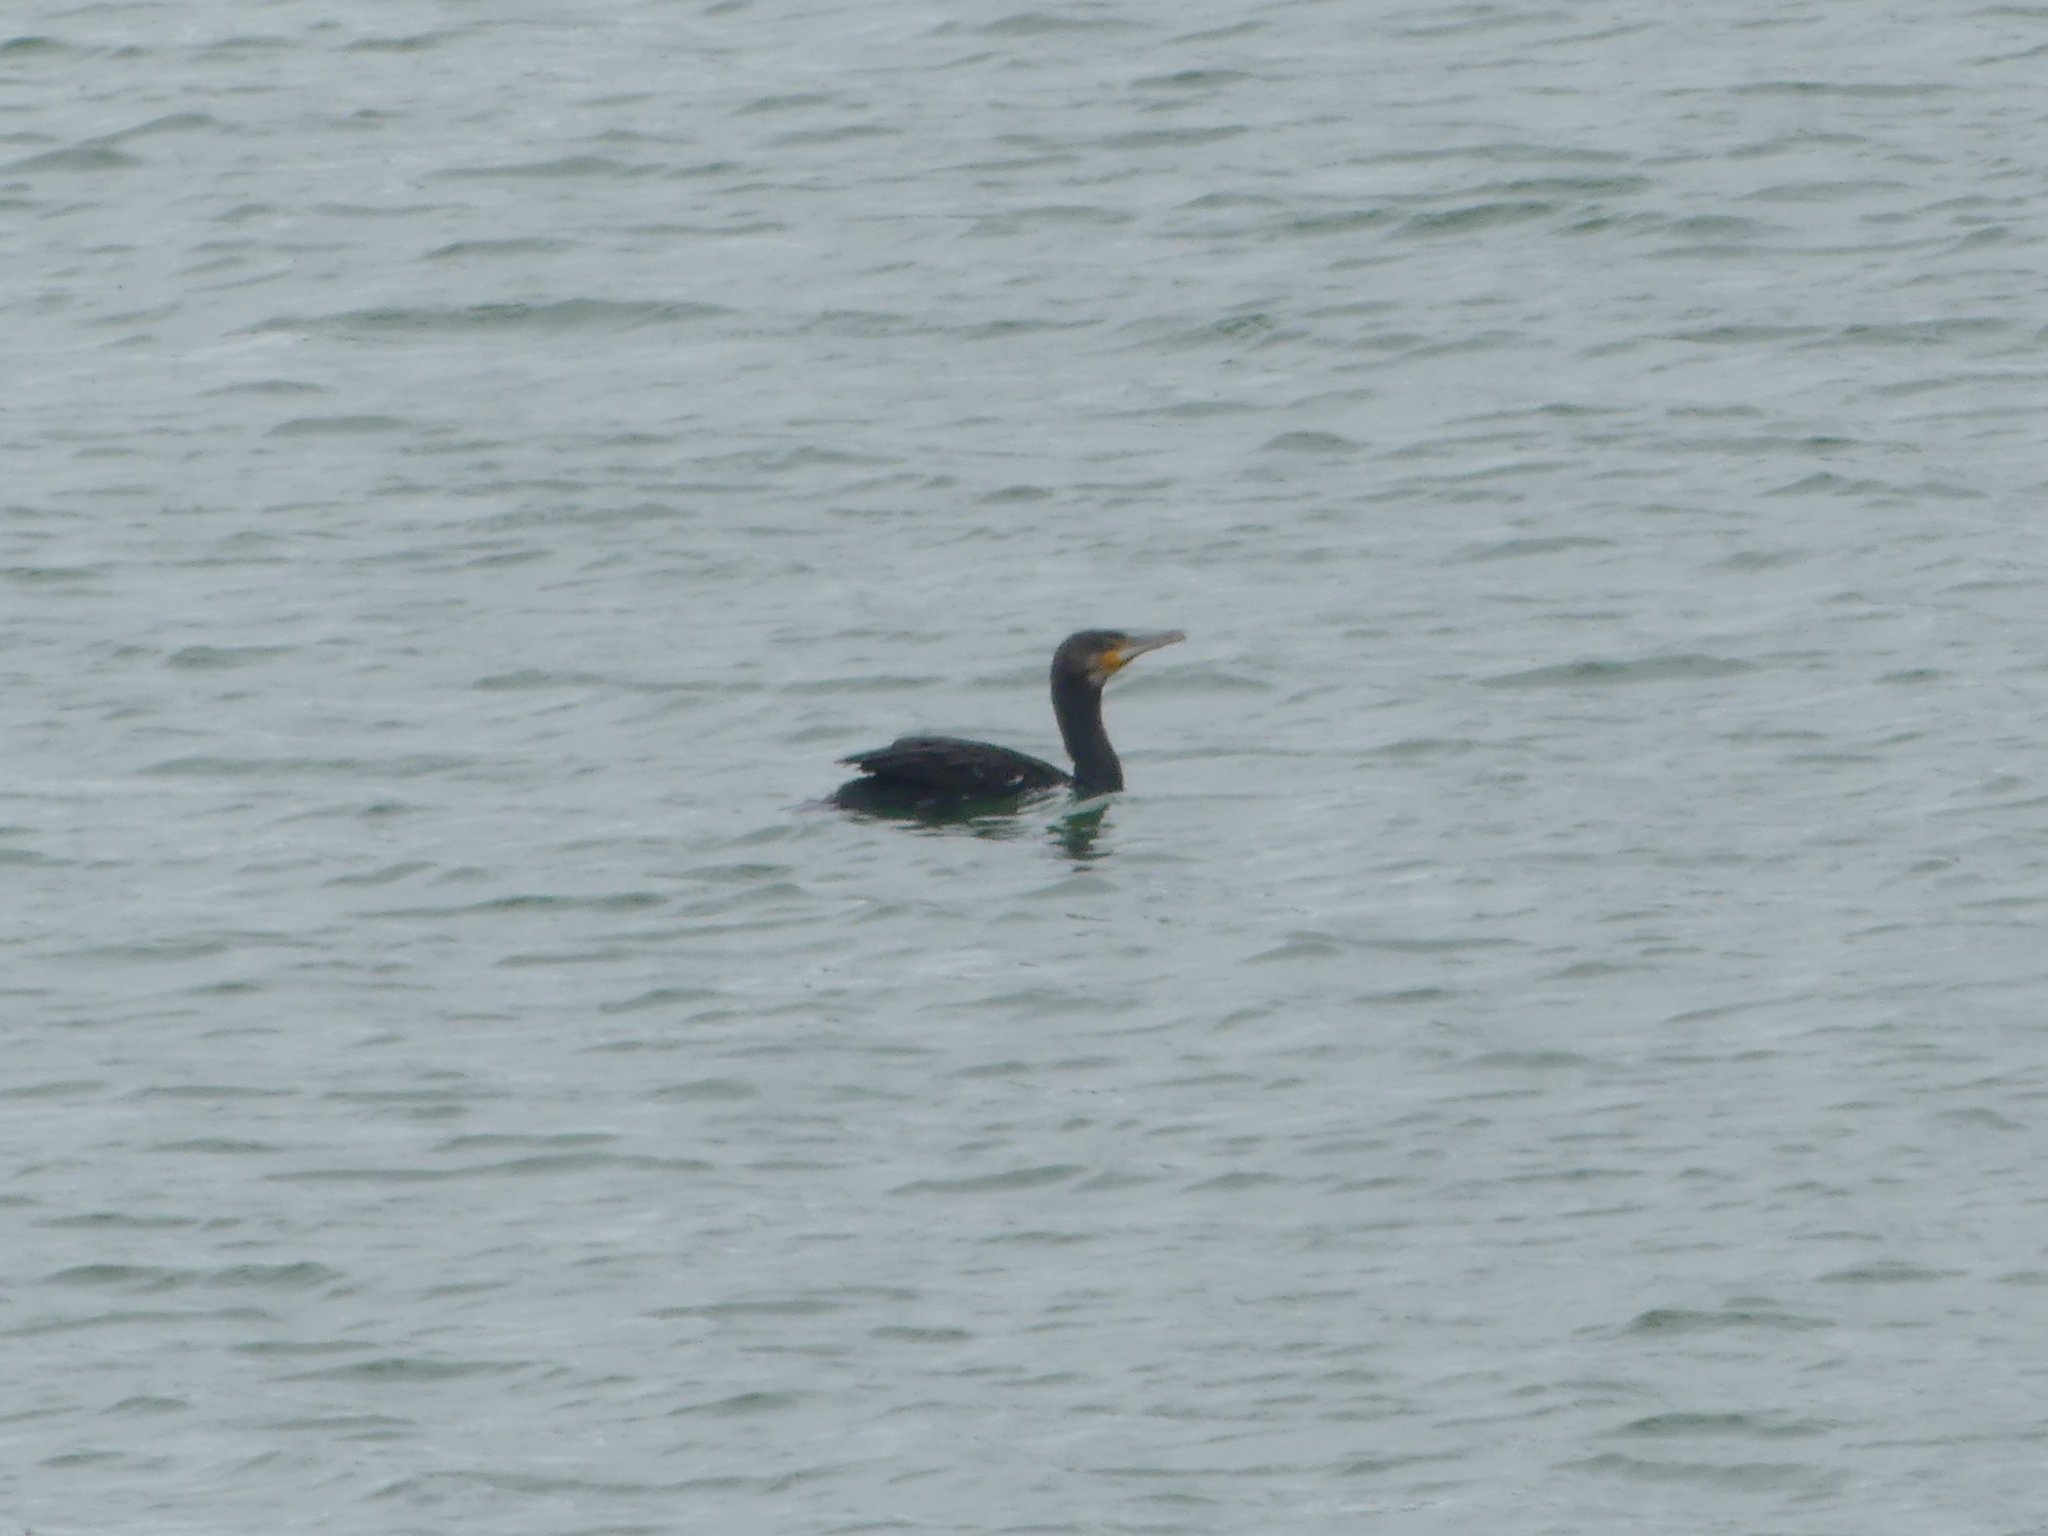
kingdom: Animalia
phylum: Chordata
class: Aves
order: Suliformes
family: Phalacrocoracidae
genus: Phalacrocorax
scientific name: Phalacrocorax carbo
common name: Great cormorant
